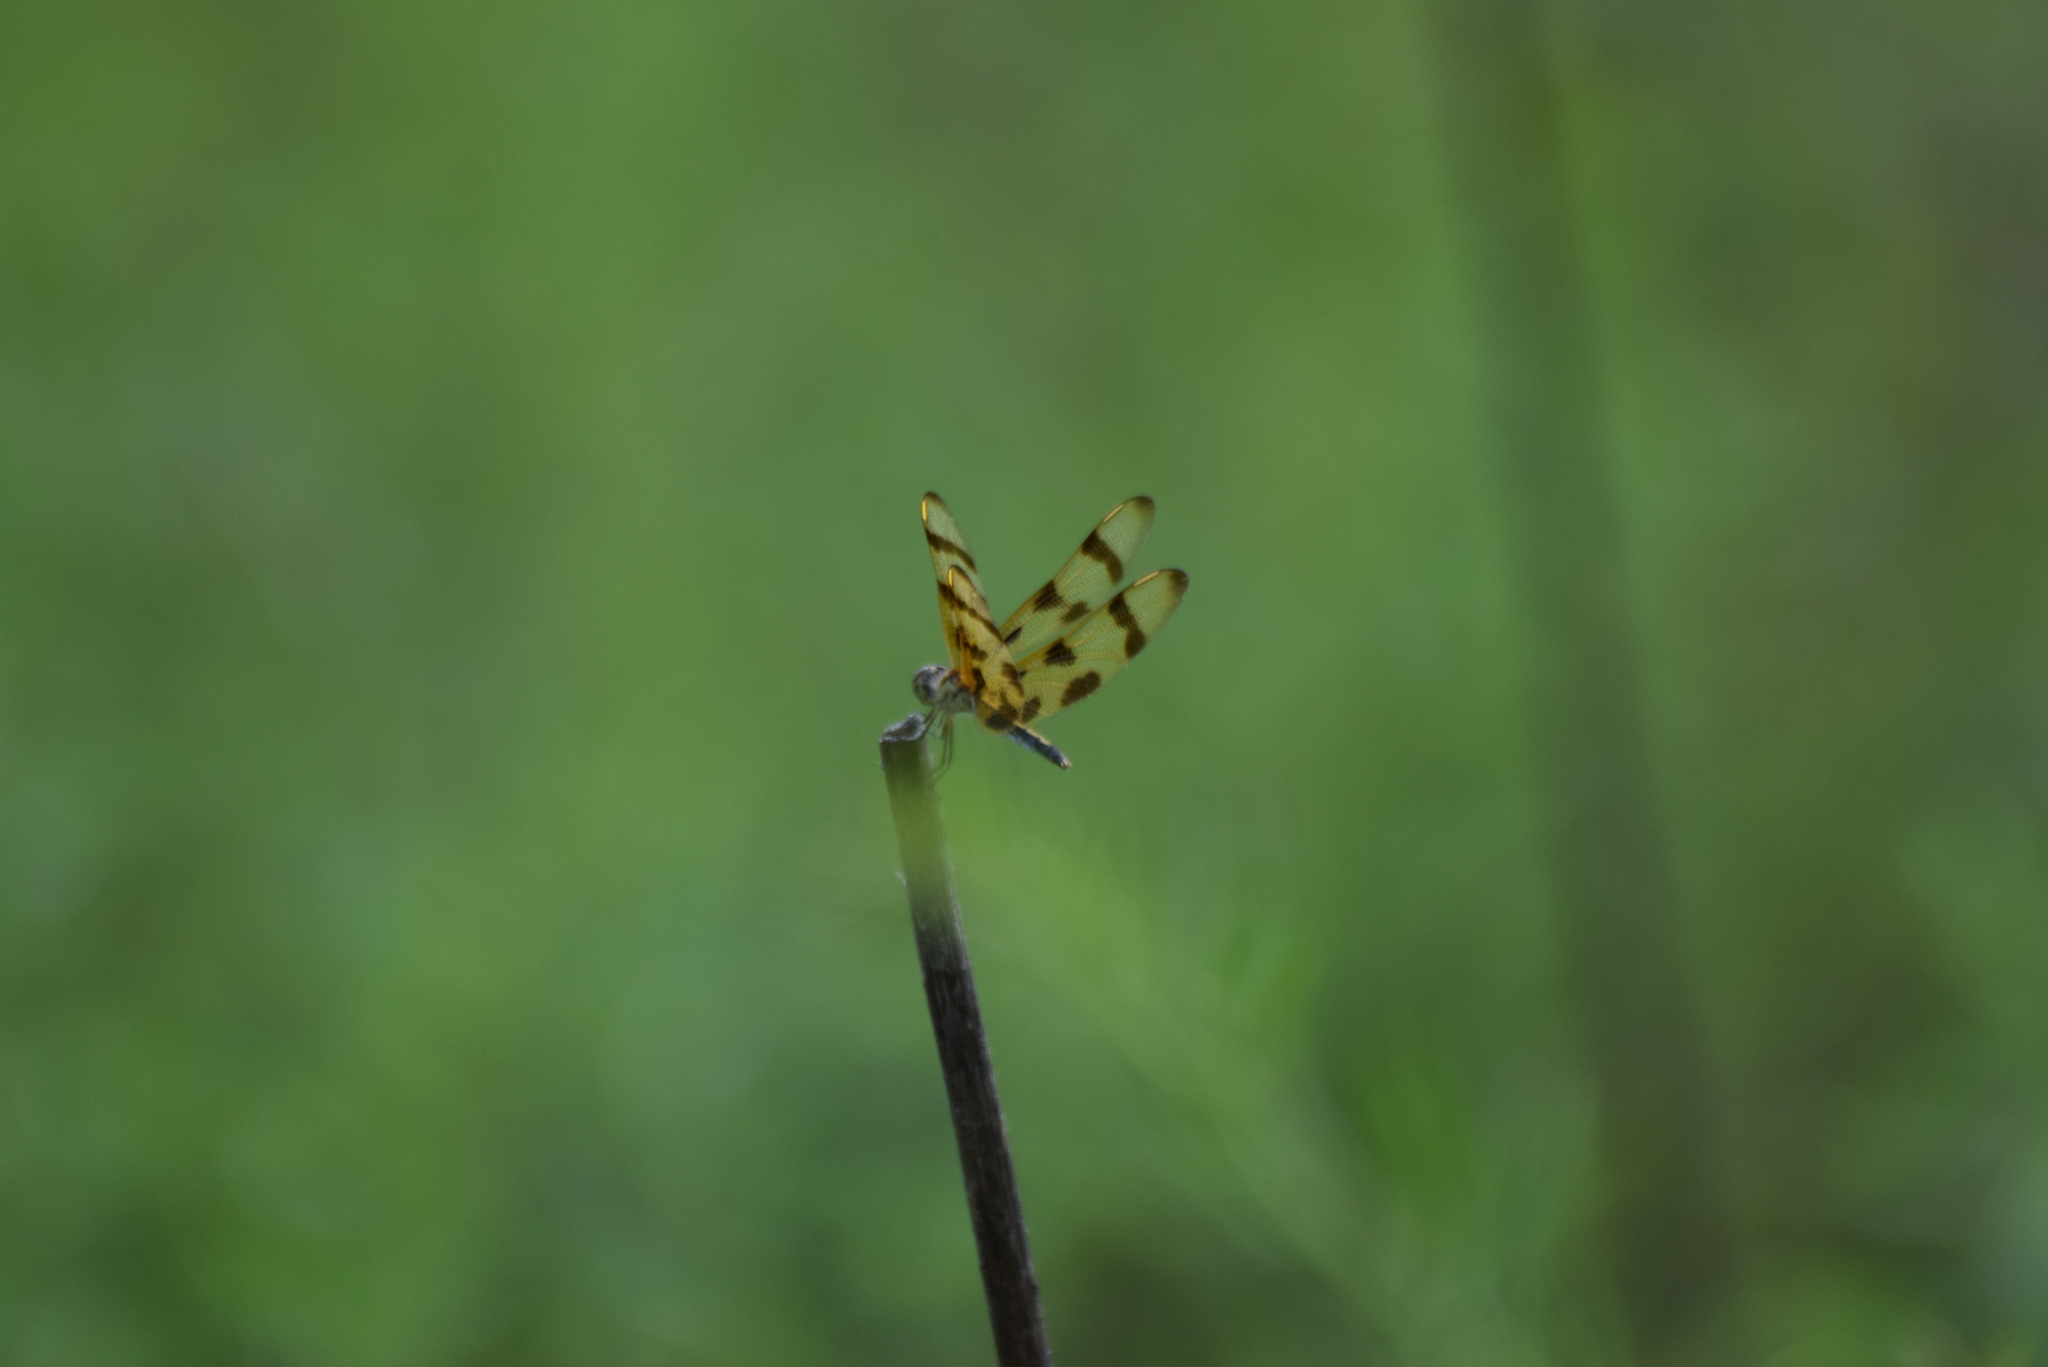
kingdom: Animalia
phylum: Arthropoda
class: Insecta
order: Odonata
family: Libellulidae
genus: Celithemis
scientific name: Celithemis eponina
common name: Halloween pennant
